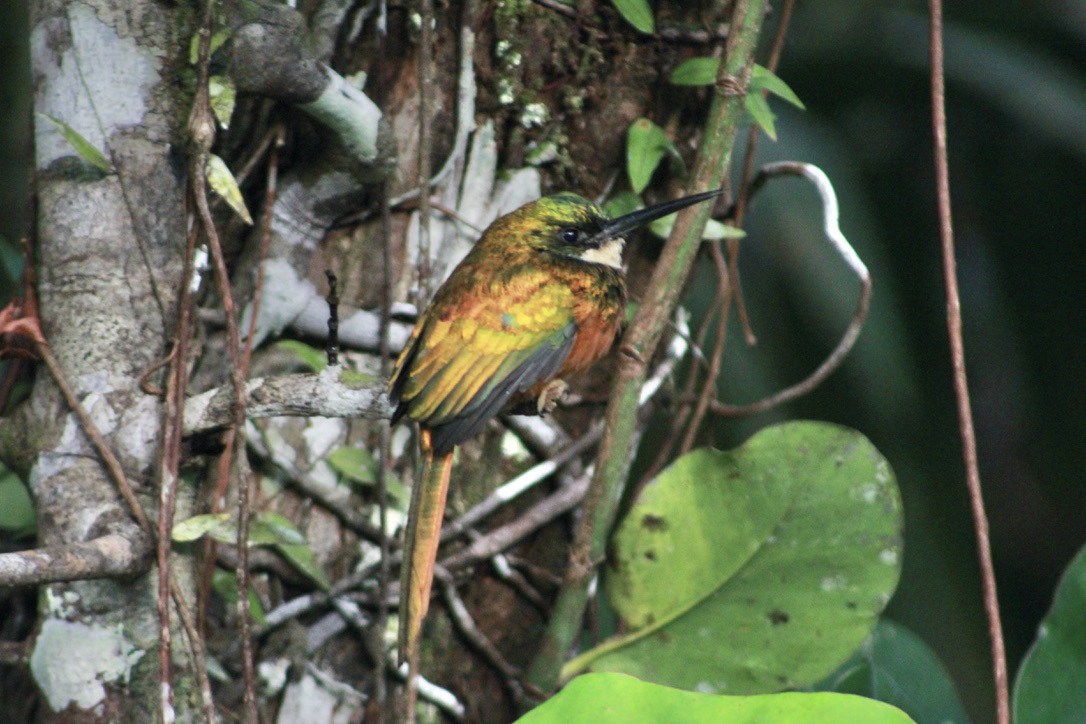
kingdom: Animalia
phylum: Chordata
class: Aves
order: Piciformes
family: Galbulidae
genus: Galbula
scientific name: Galbula ruficauda
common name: Rufous-tailed jacamar
